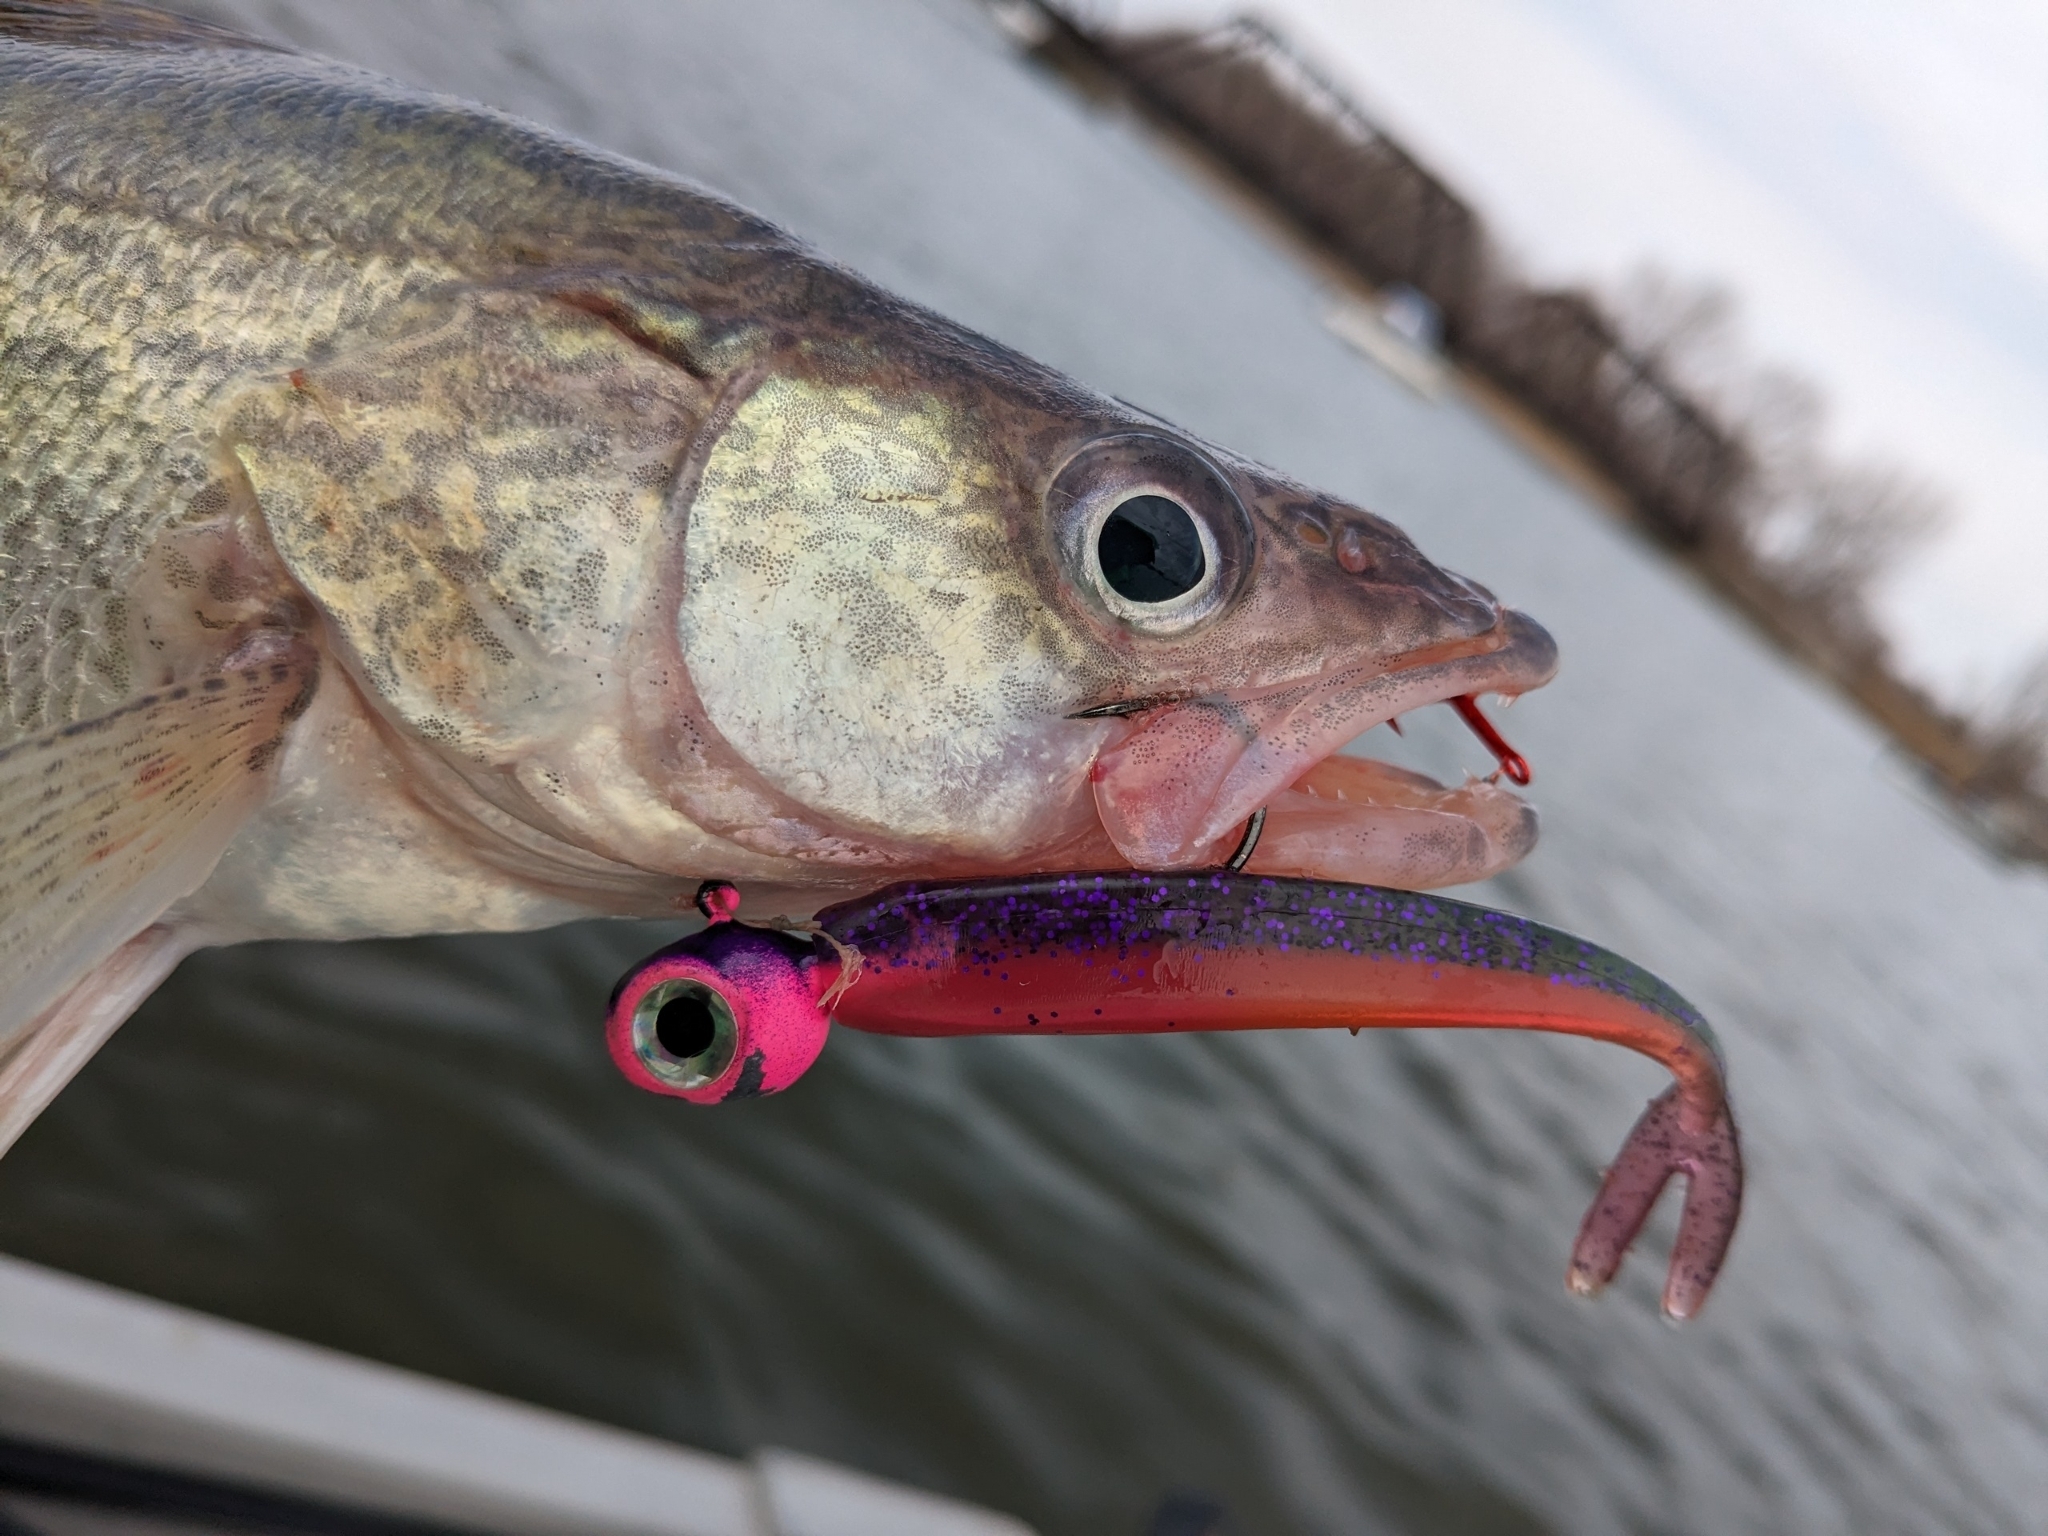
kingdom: Animalia
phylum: Chordata
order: Perciformes
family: Percidae
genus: Sander
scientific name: Sander vitreus
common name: Walleye
